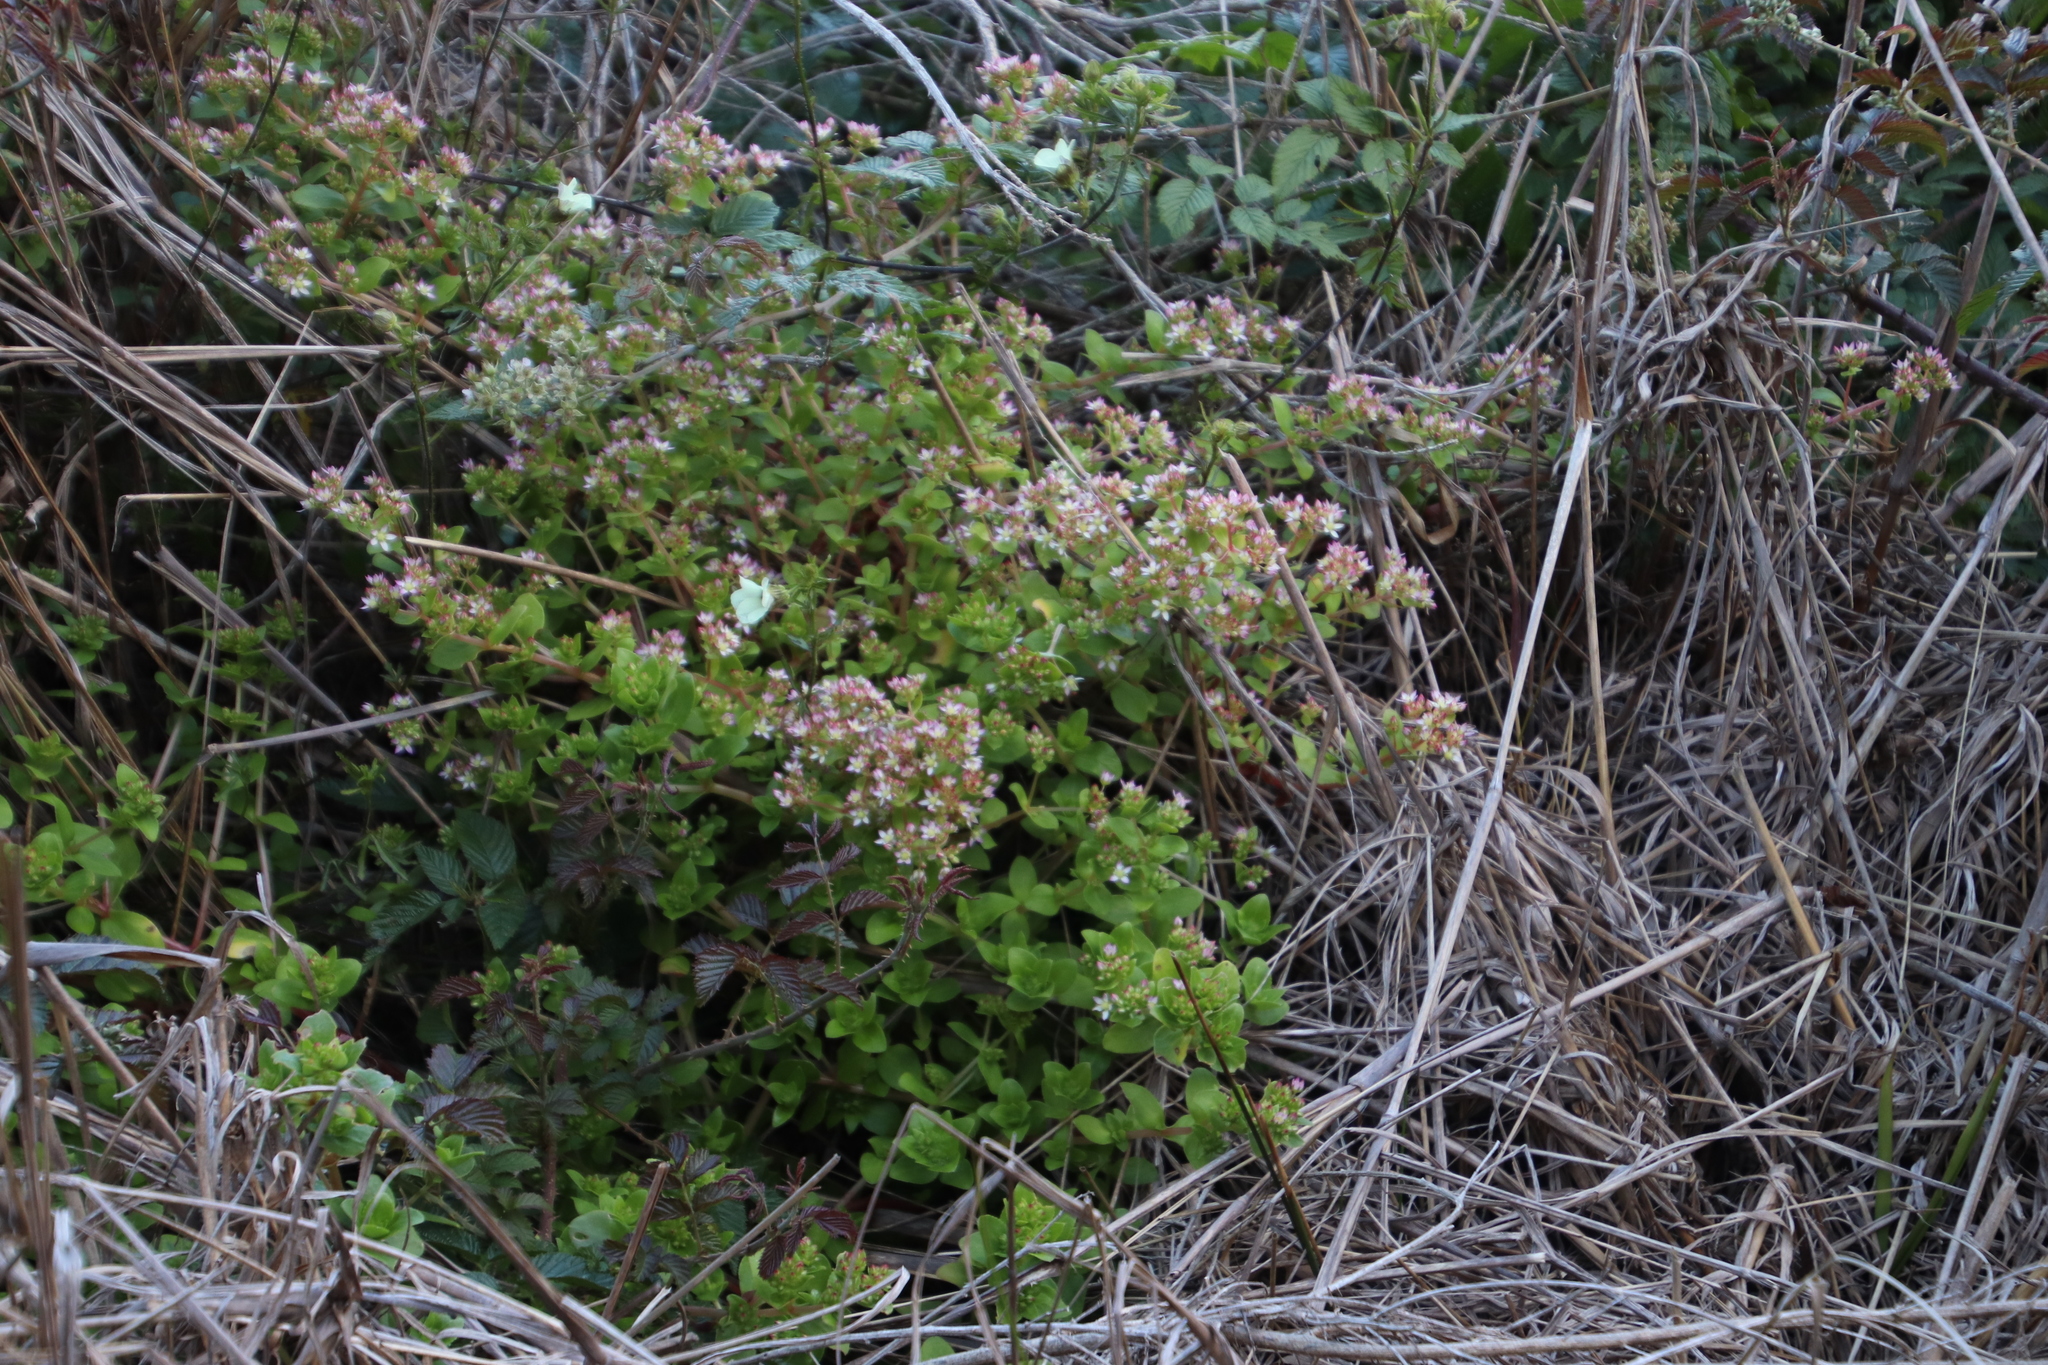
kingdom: Plantae
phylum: Tracheophyta
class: Magnoliopsida
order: Saxifragales
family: Crassulaceae
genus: Crassula
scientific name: Crassula pellucida
